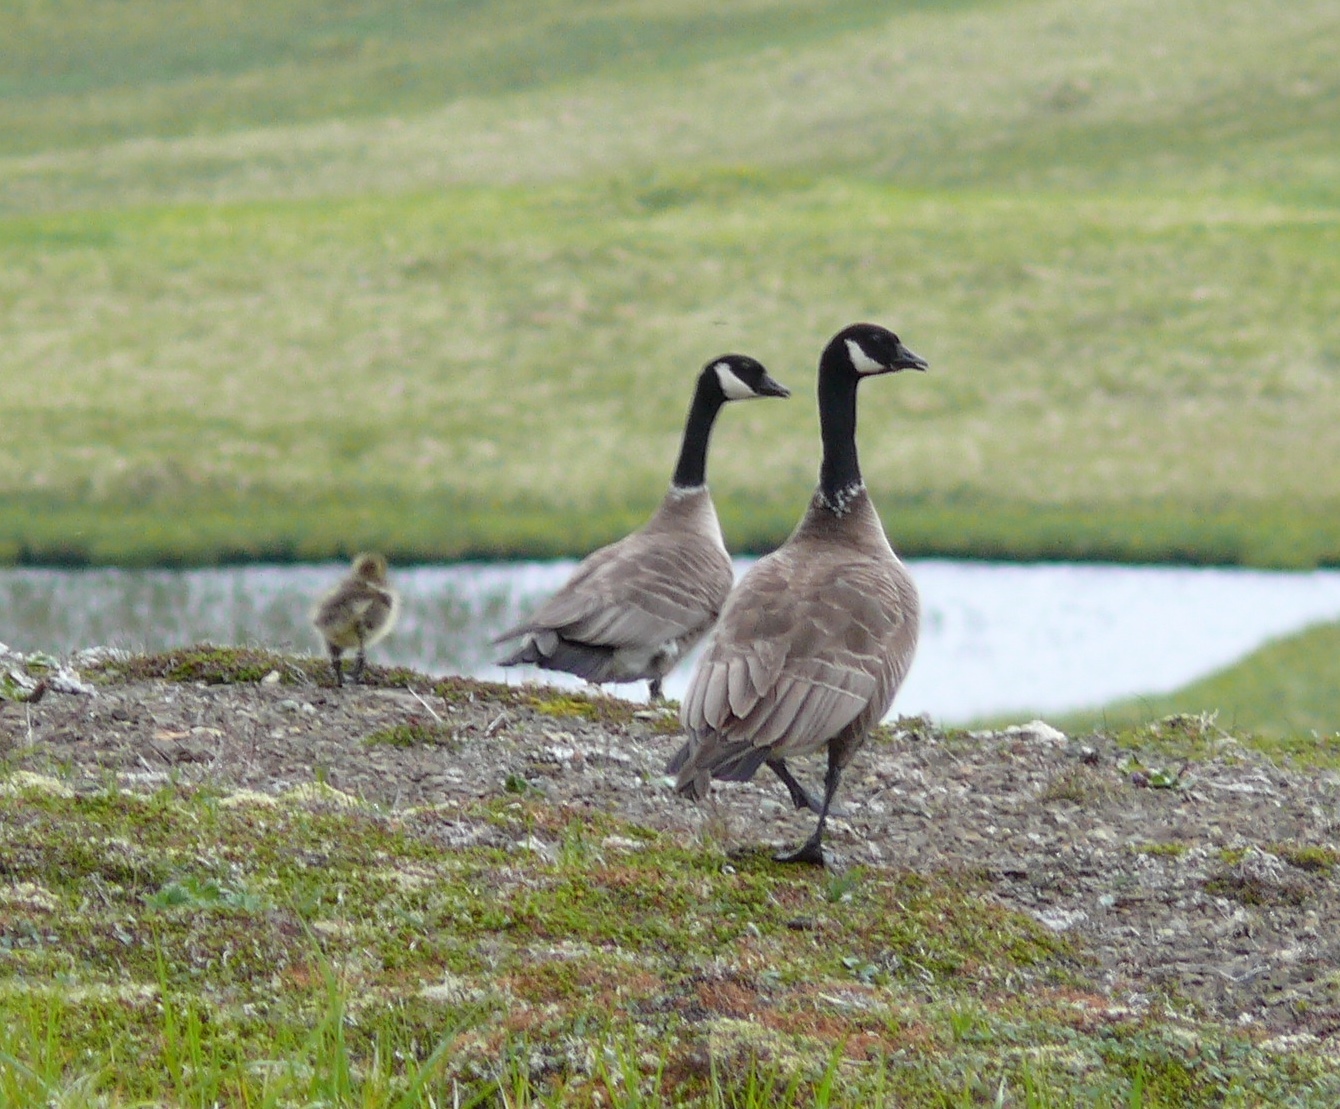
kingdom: Animalia
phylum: Chordata
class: Aves
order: Anseriformes
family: Anatidae
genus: Branta
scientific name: Branta hutchinsii
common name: Cackling goose
